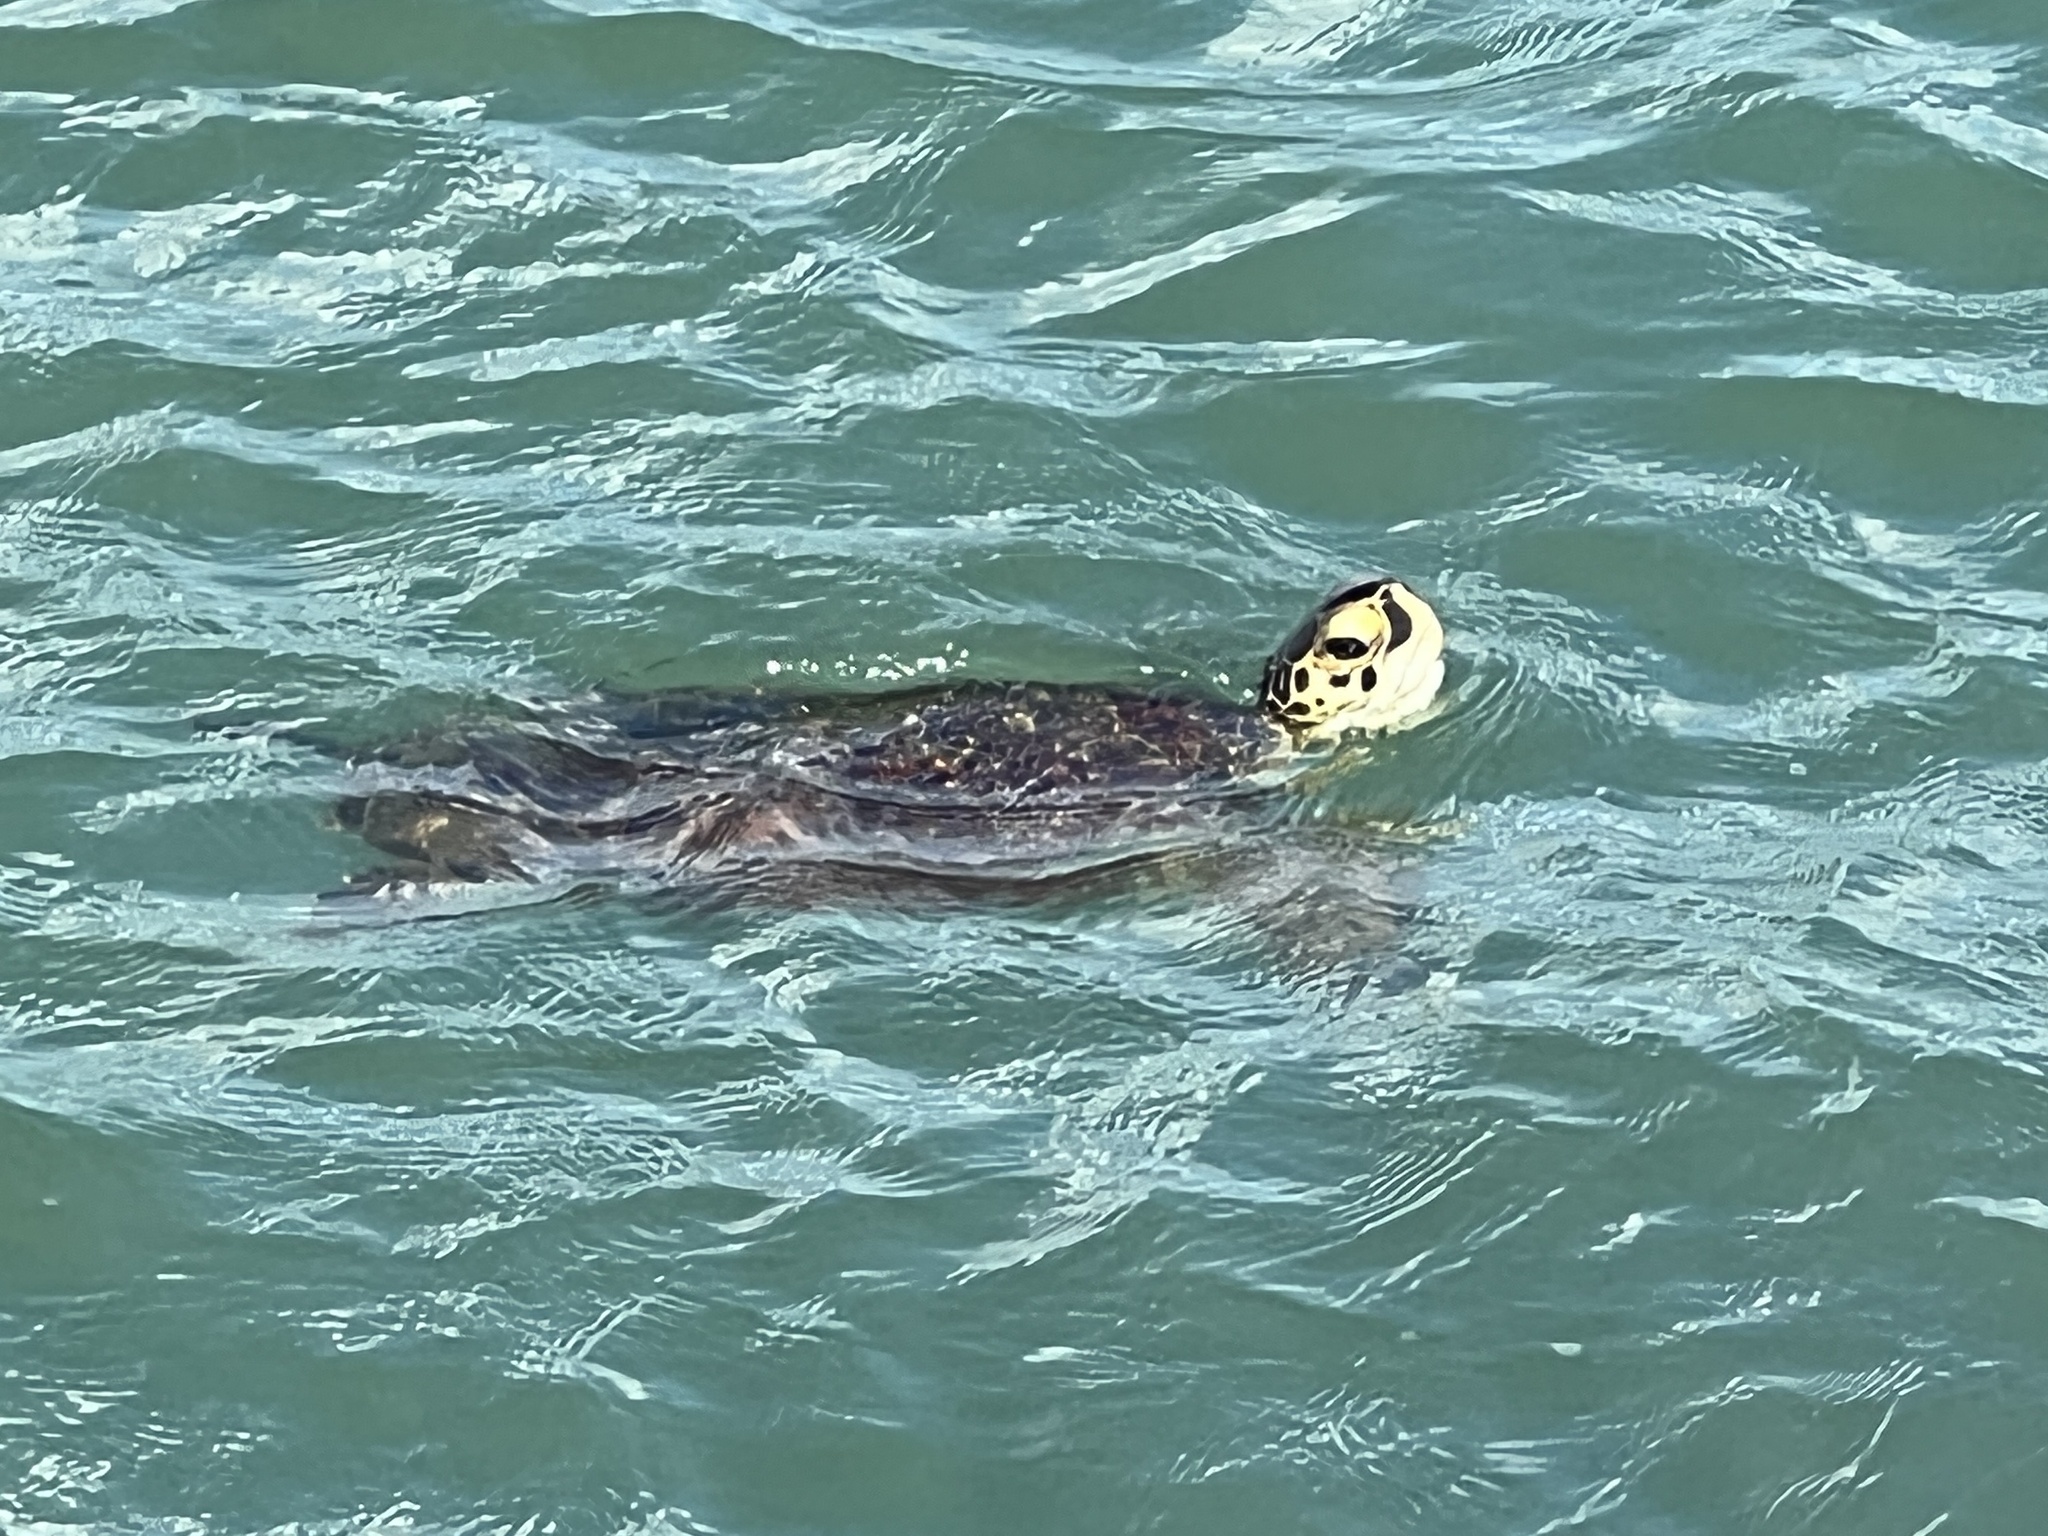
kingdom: Animalia
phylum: Chordata
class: Testudines
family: Cheloniidae
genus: Chelonia
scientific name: Chelonia mydas
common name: Green turtle
